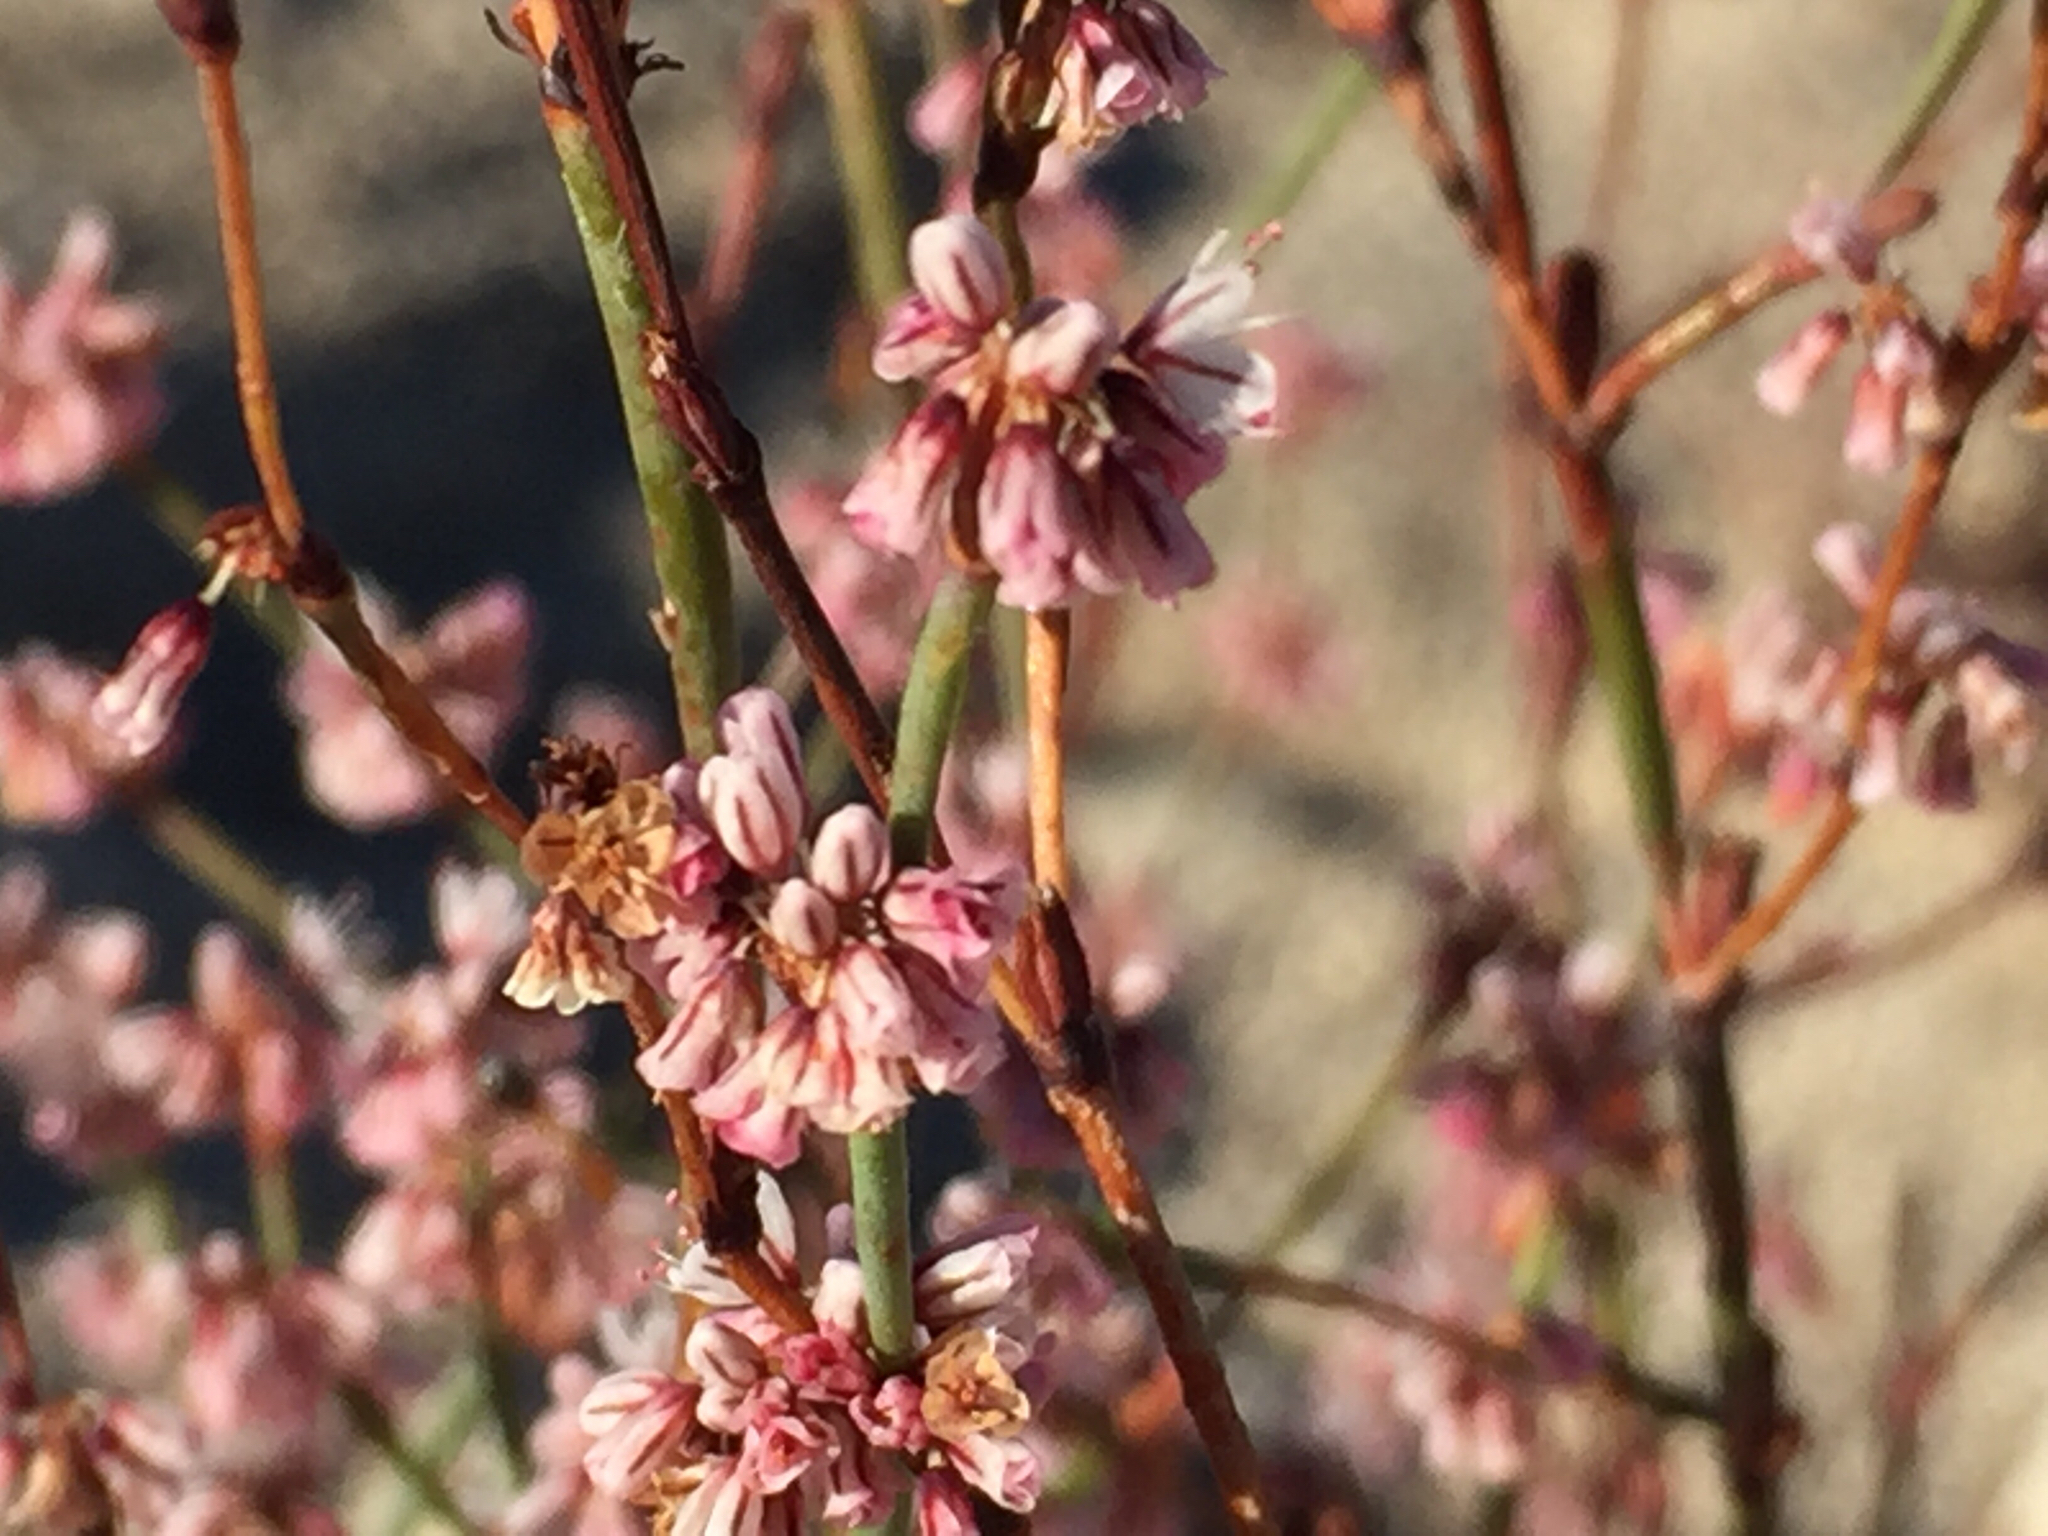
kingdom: Plantae
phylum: Tracheophyta
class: Magnoliopsida
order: Caryophyllales
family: Polygonaceae
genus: Eriogonum
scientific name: Eriogonum davidsonii
